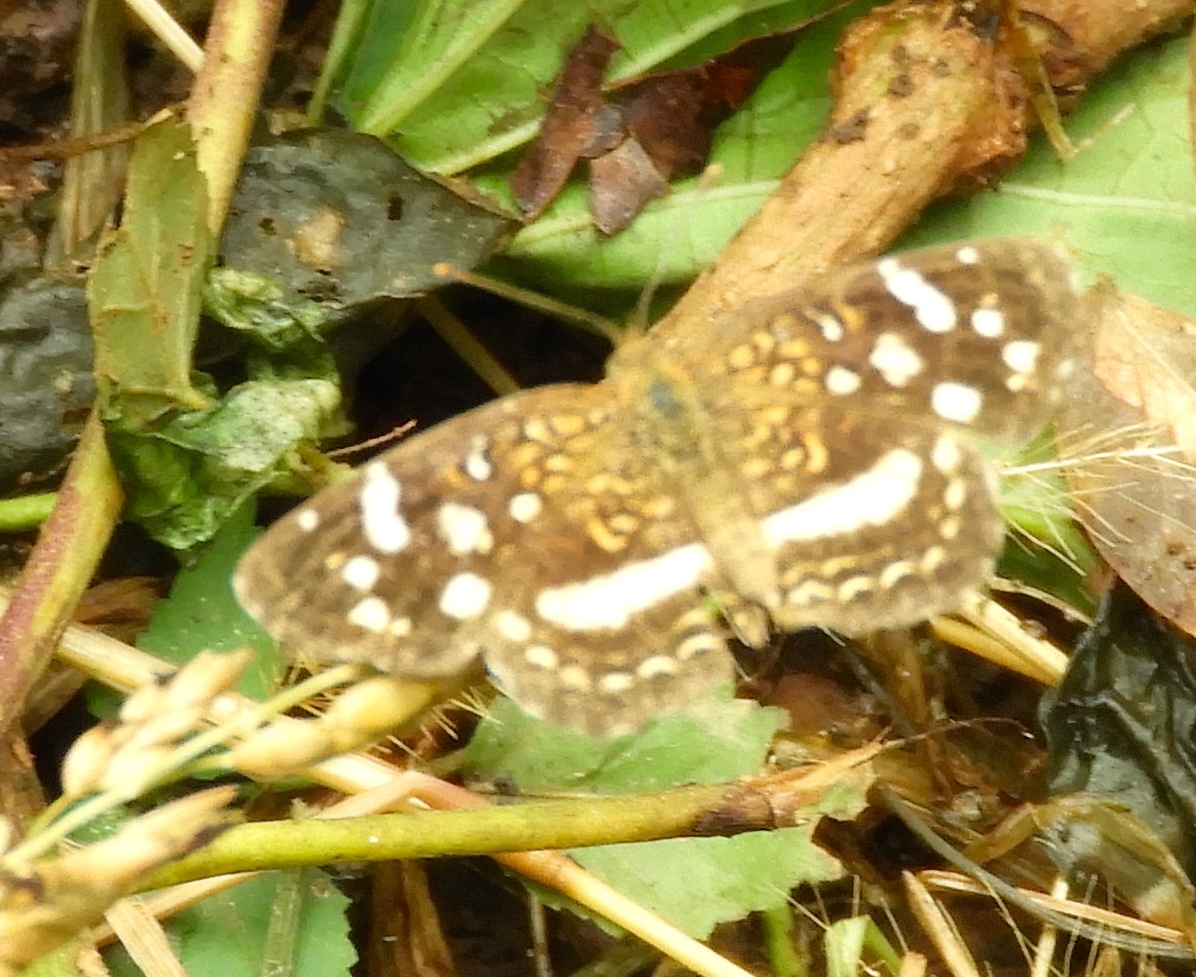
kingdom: Animalia
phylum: Arthropoda
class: Insecta
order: Lepidoptera
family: Nymphalidae
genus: Anthanassa
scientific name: Anthanassa tulcis
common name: Pale-banded crescent
